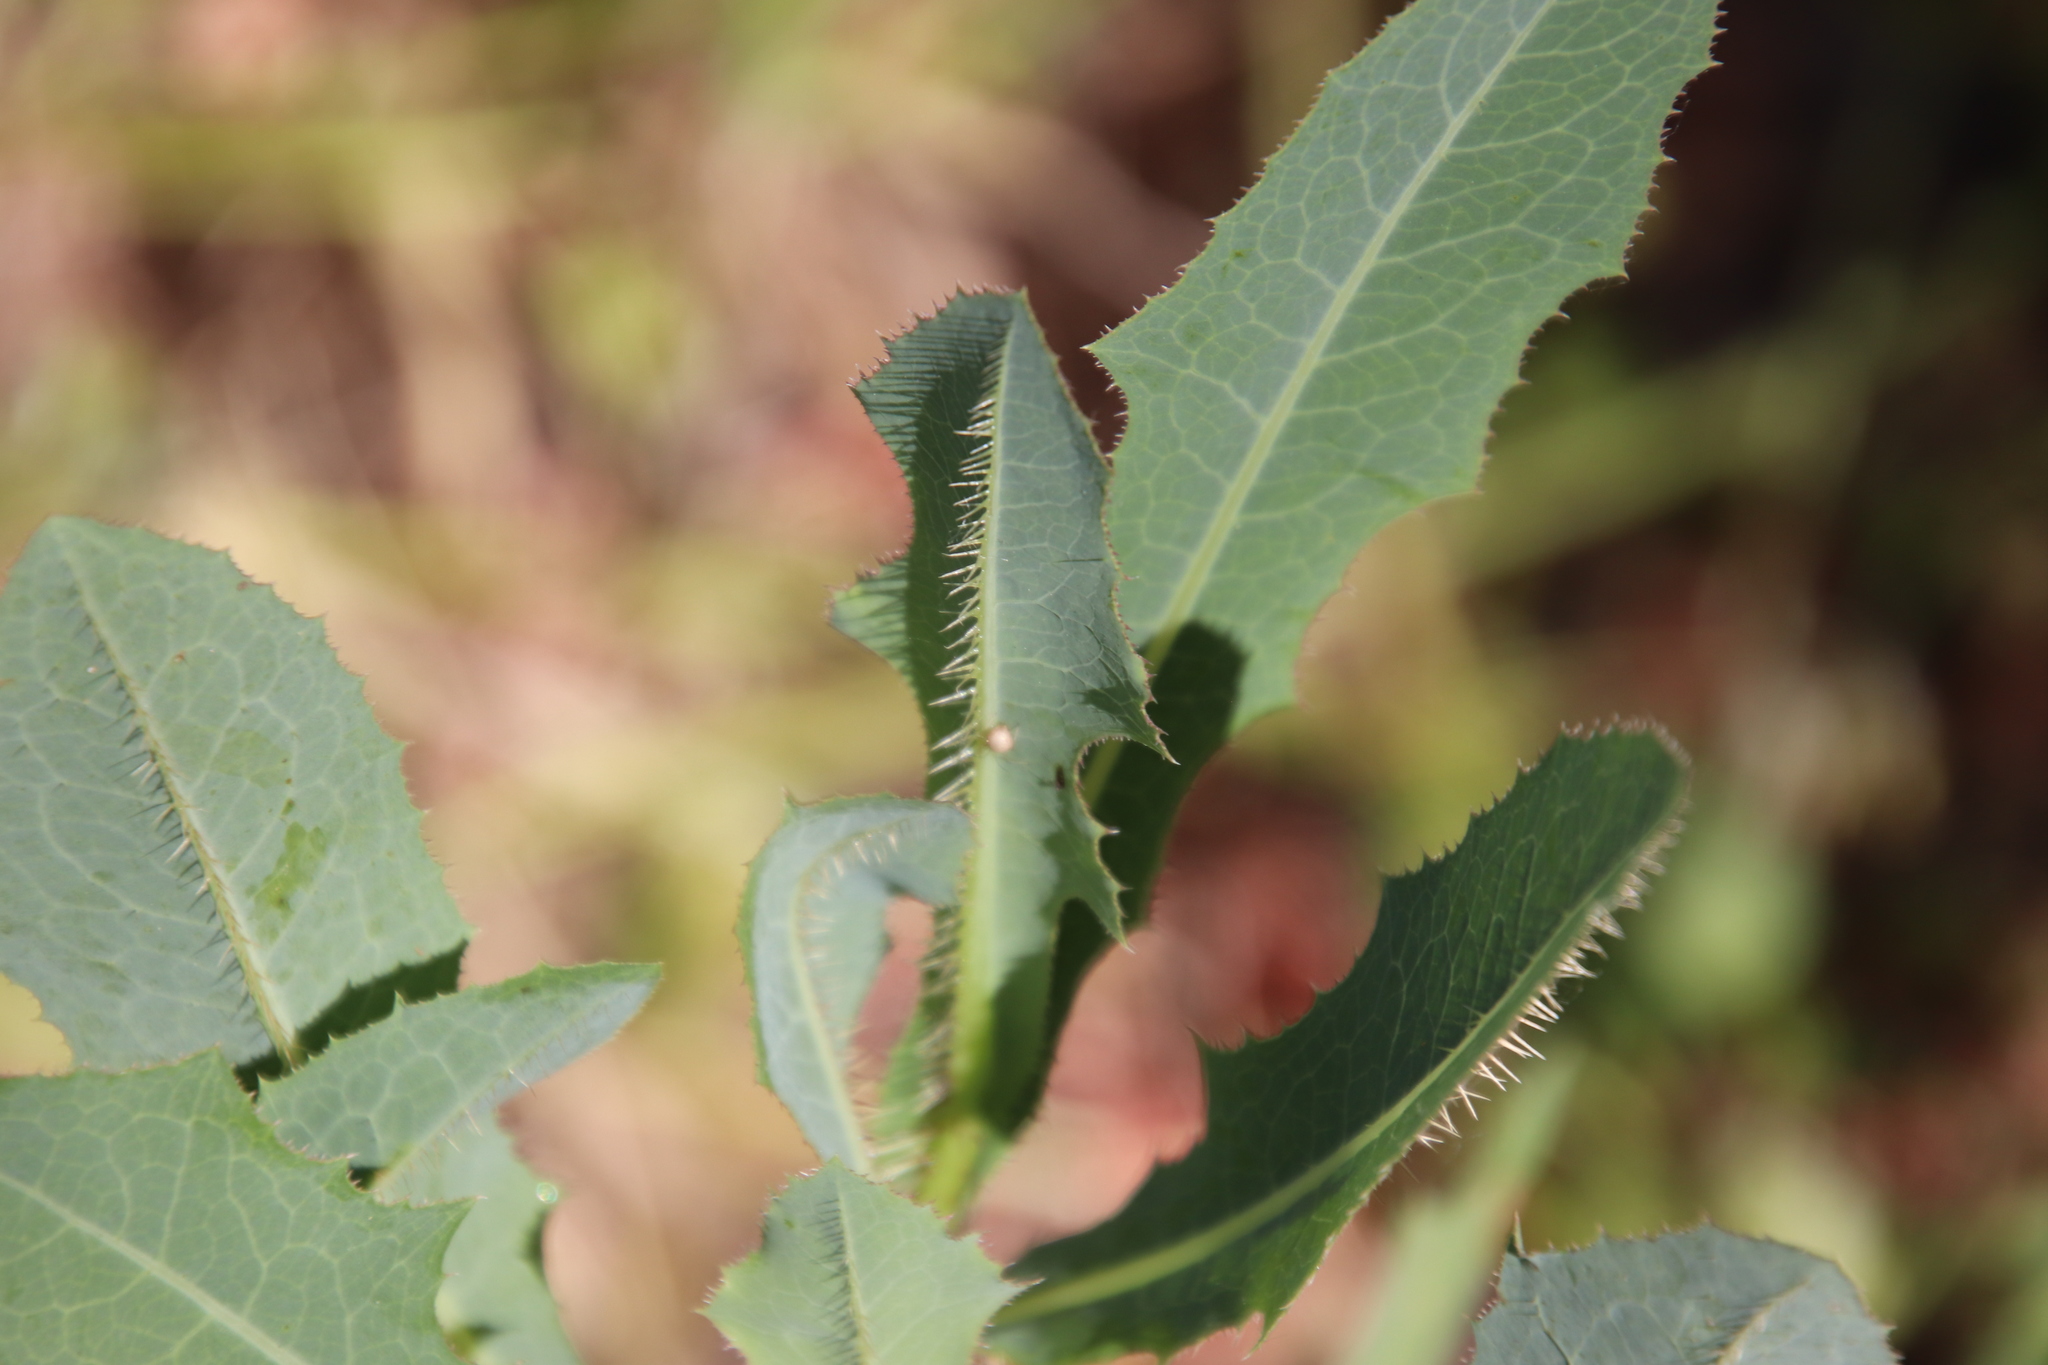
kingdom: Plantae
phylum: Tracheophyta
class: Magnoliopsida
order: Asterales
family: Asteraceae
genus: Lactuca
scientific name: Lactuca serriola
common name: Prickly lettuce
